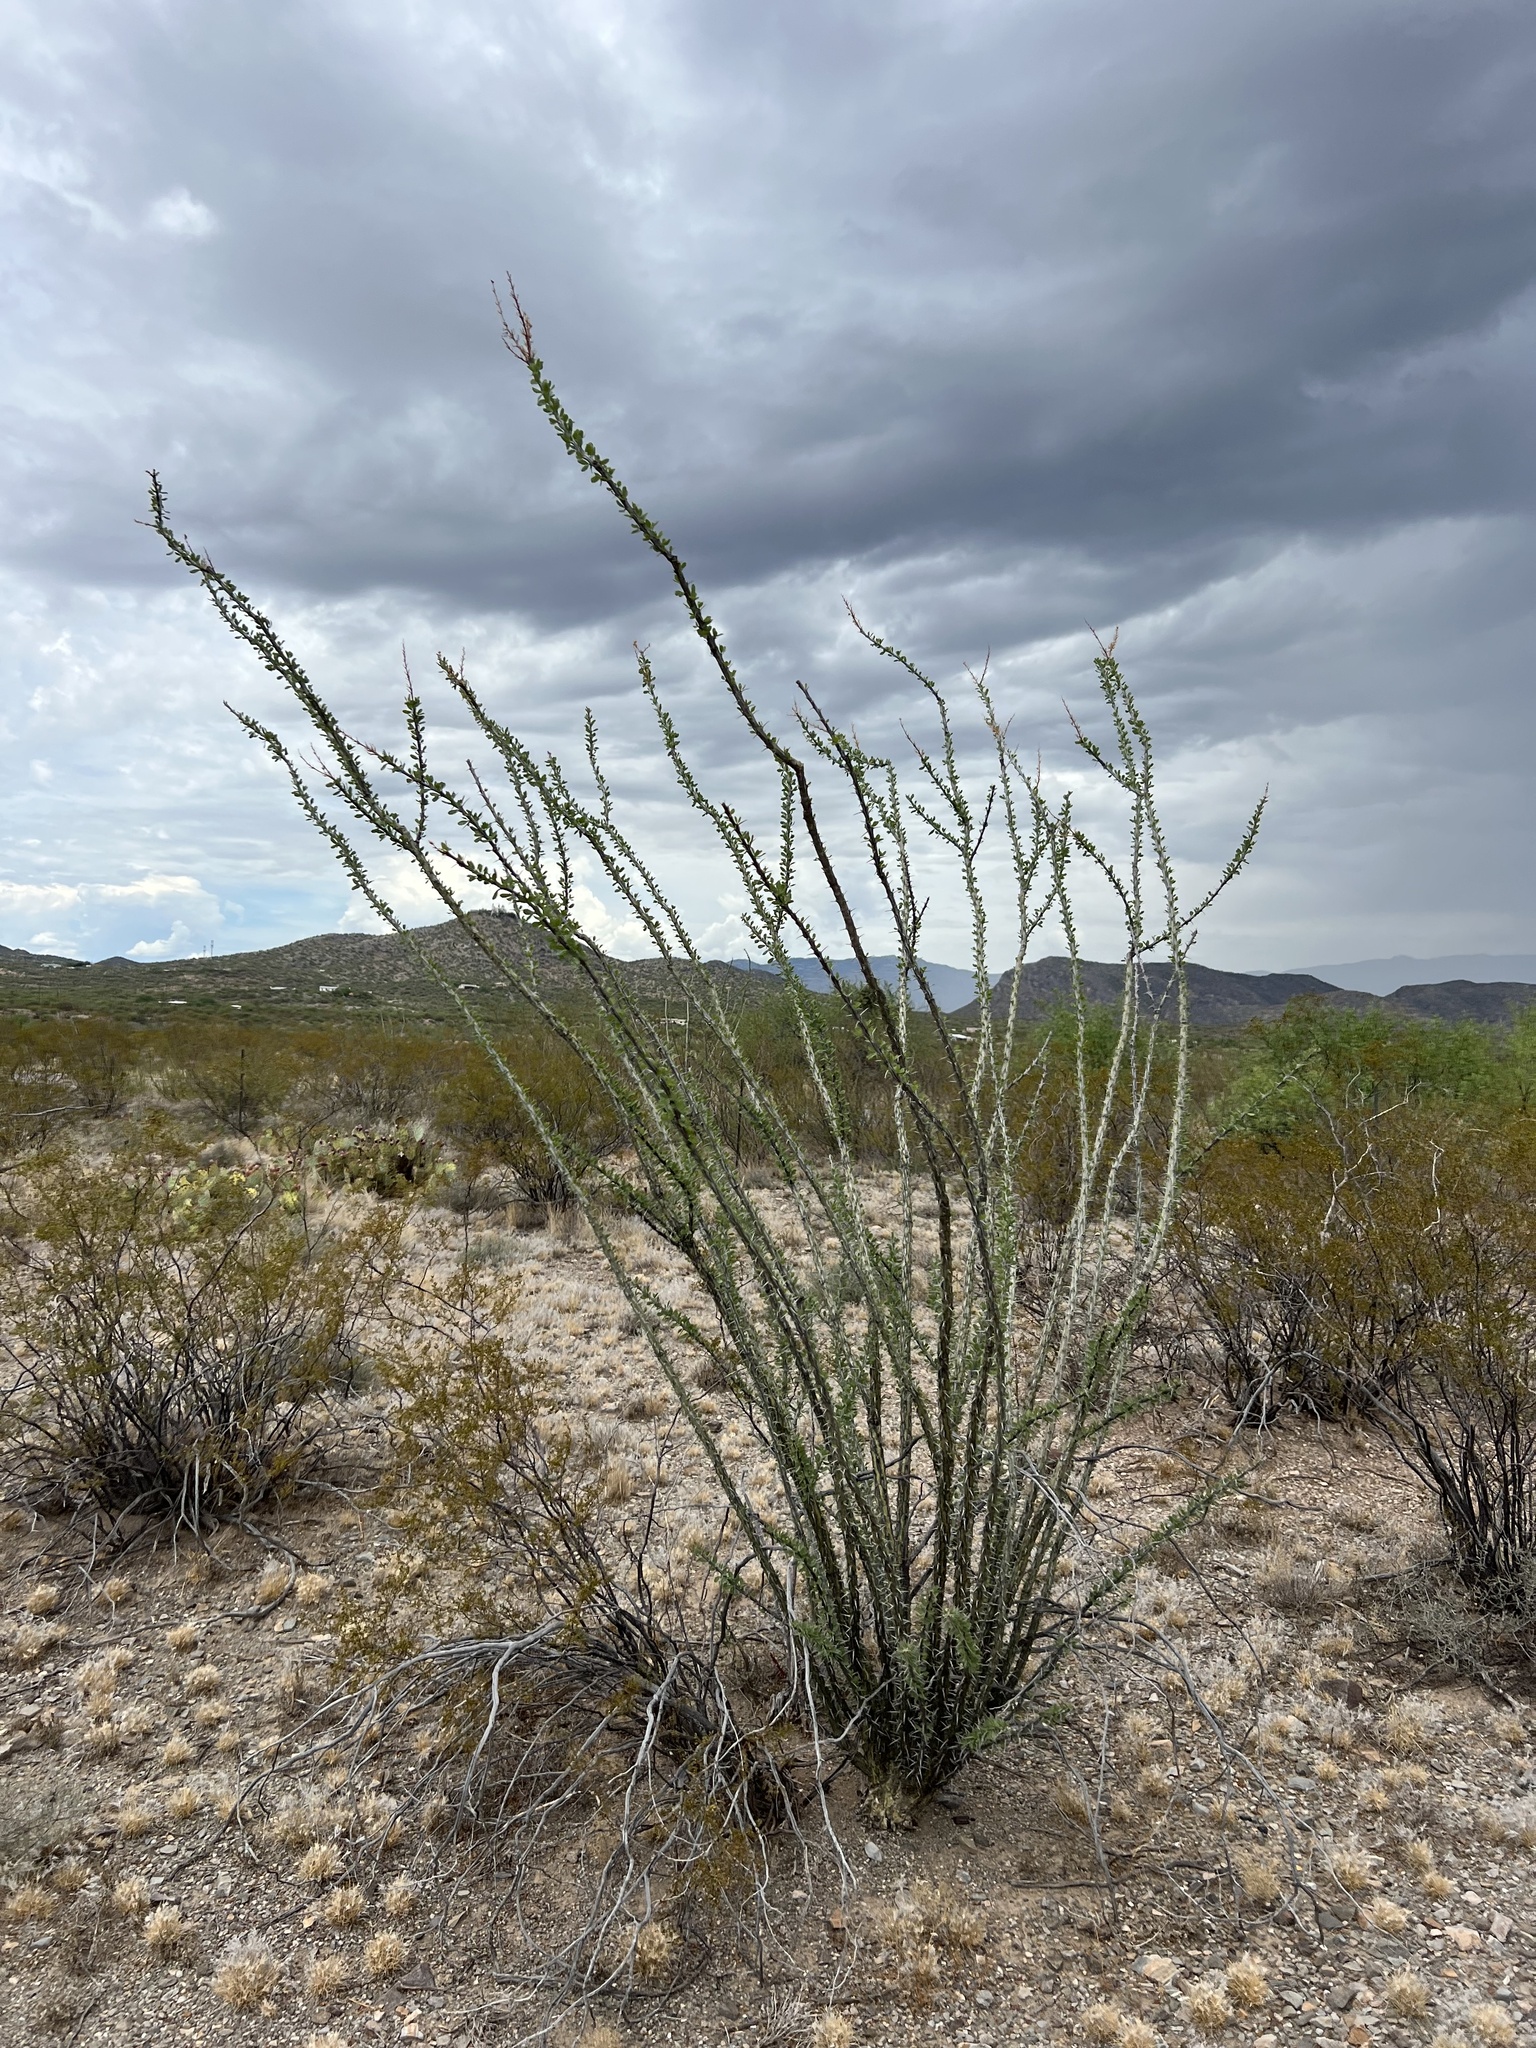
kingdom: Plantae
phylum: Tracheophyta
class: Magnoliopsida
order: Ericales
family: Fouquieriaceae
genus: Fouquieria
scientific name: Fouquieria splendens
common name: Vine-cactus
